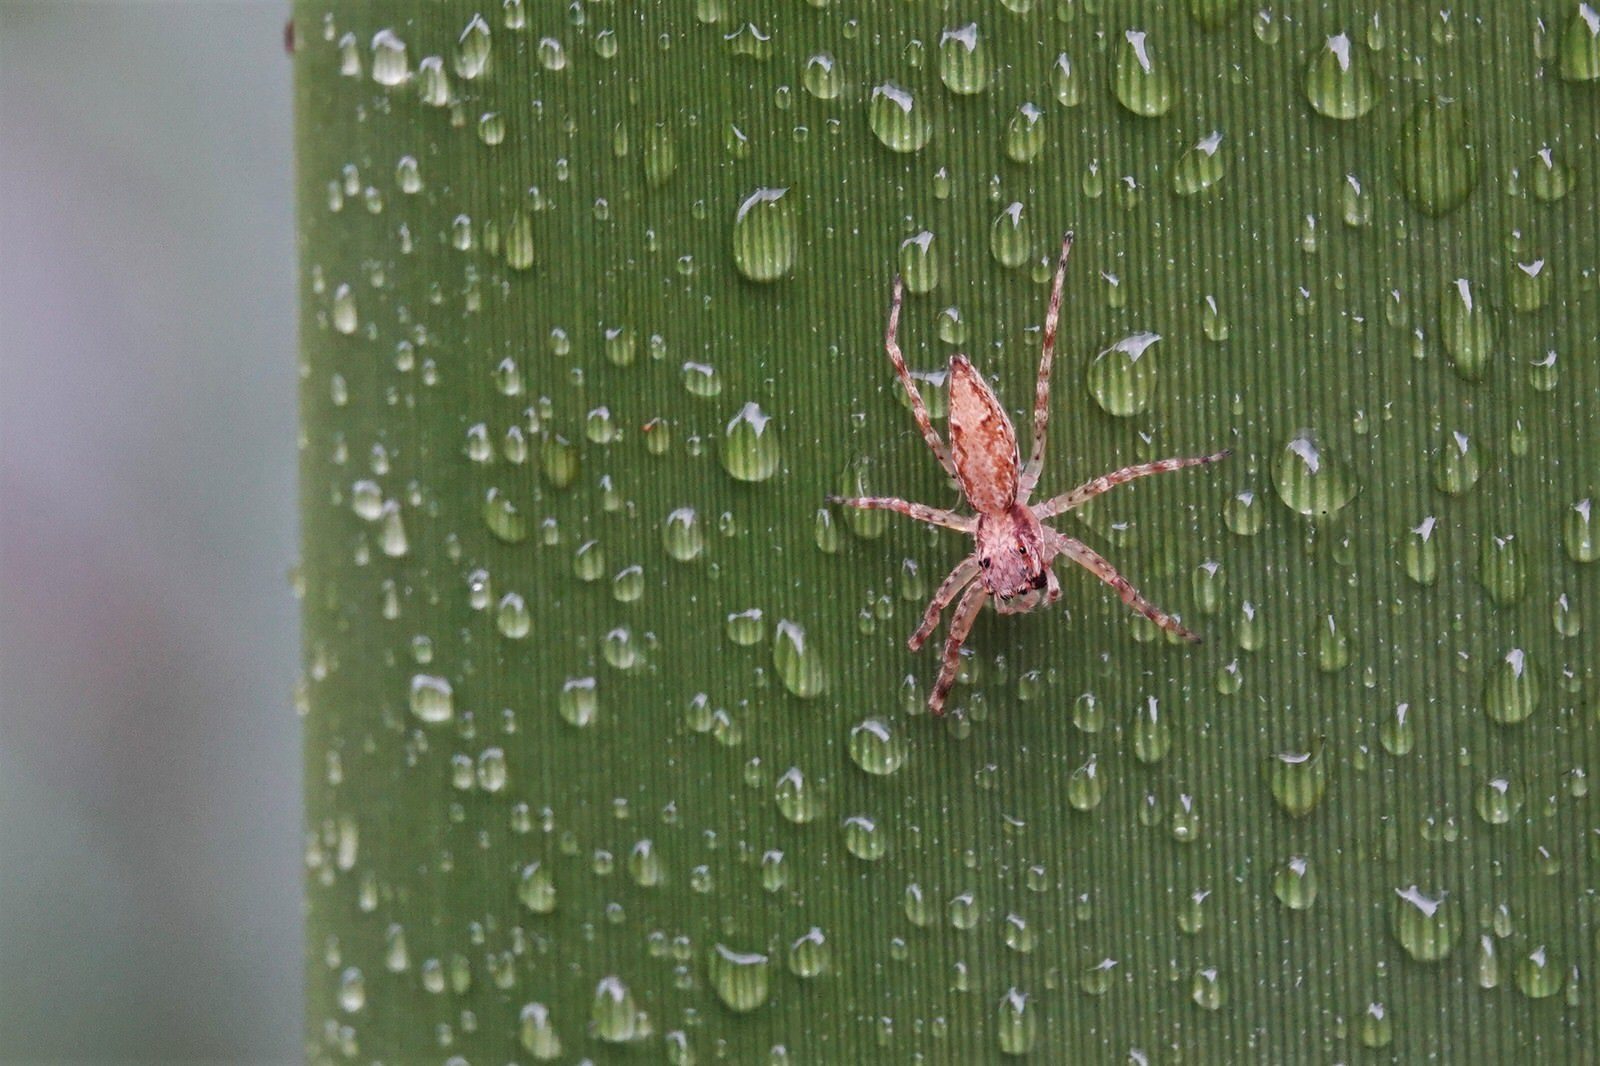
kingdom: Animalia
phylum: Arthropoda
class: Arachnida
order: Araneae
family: Salticidae
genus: Helpis
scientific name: Helpis minitabunda
